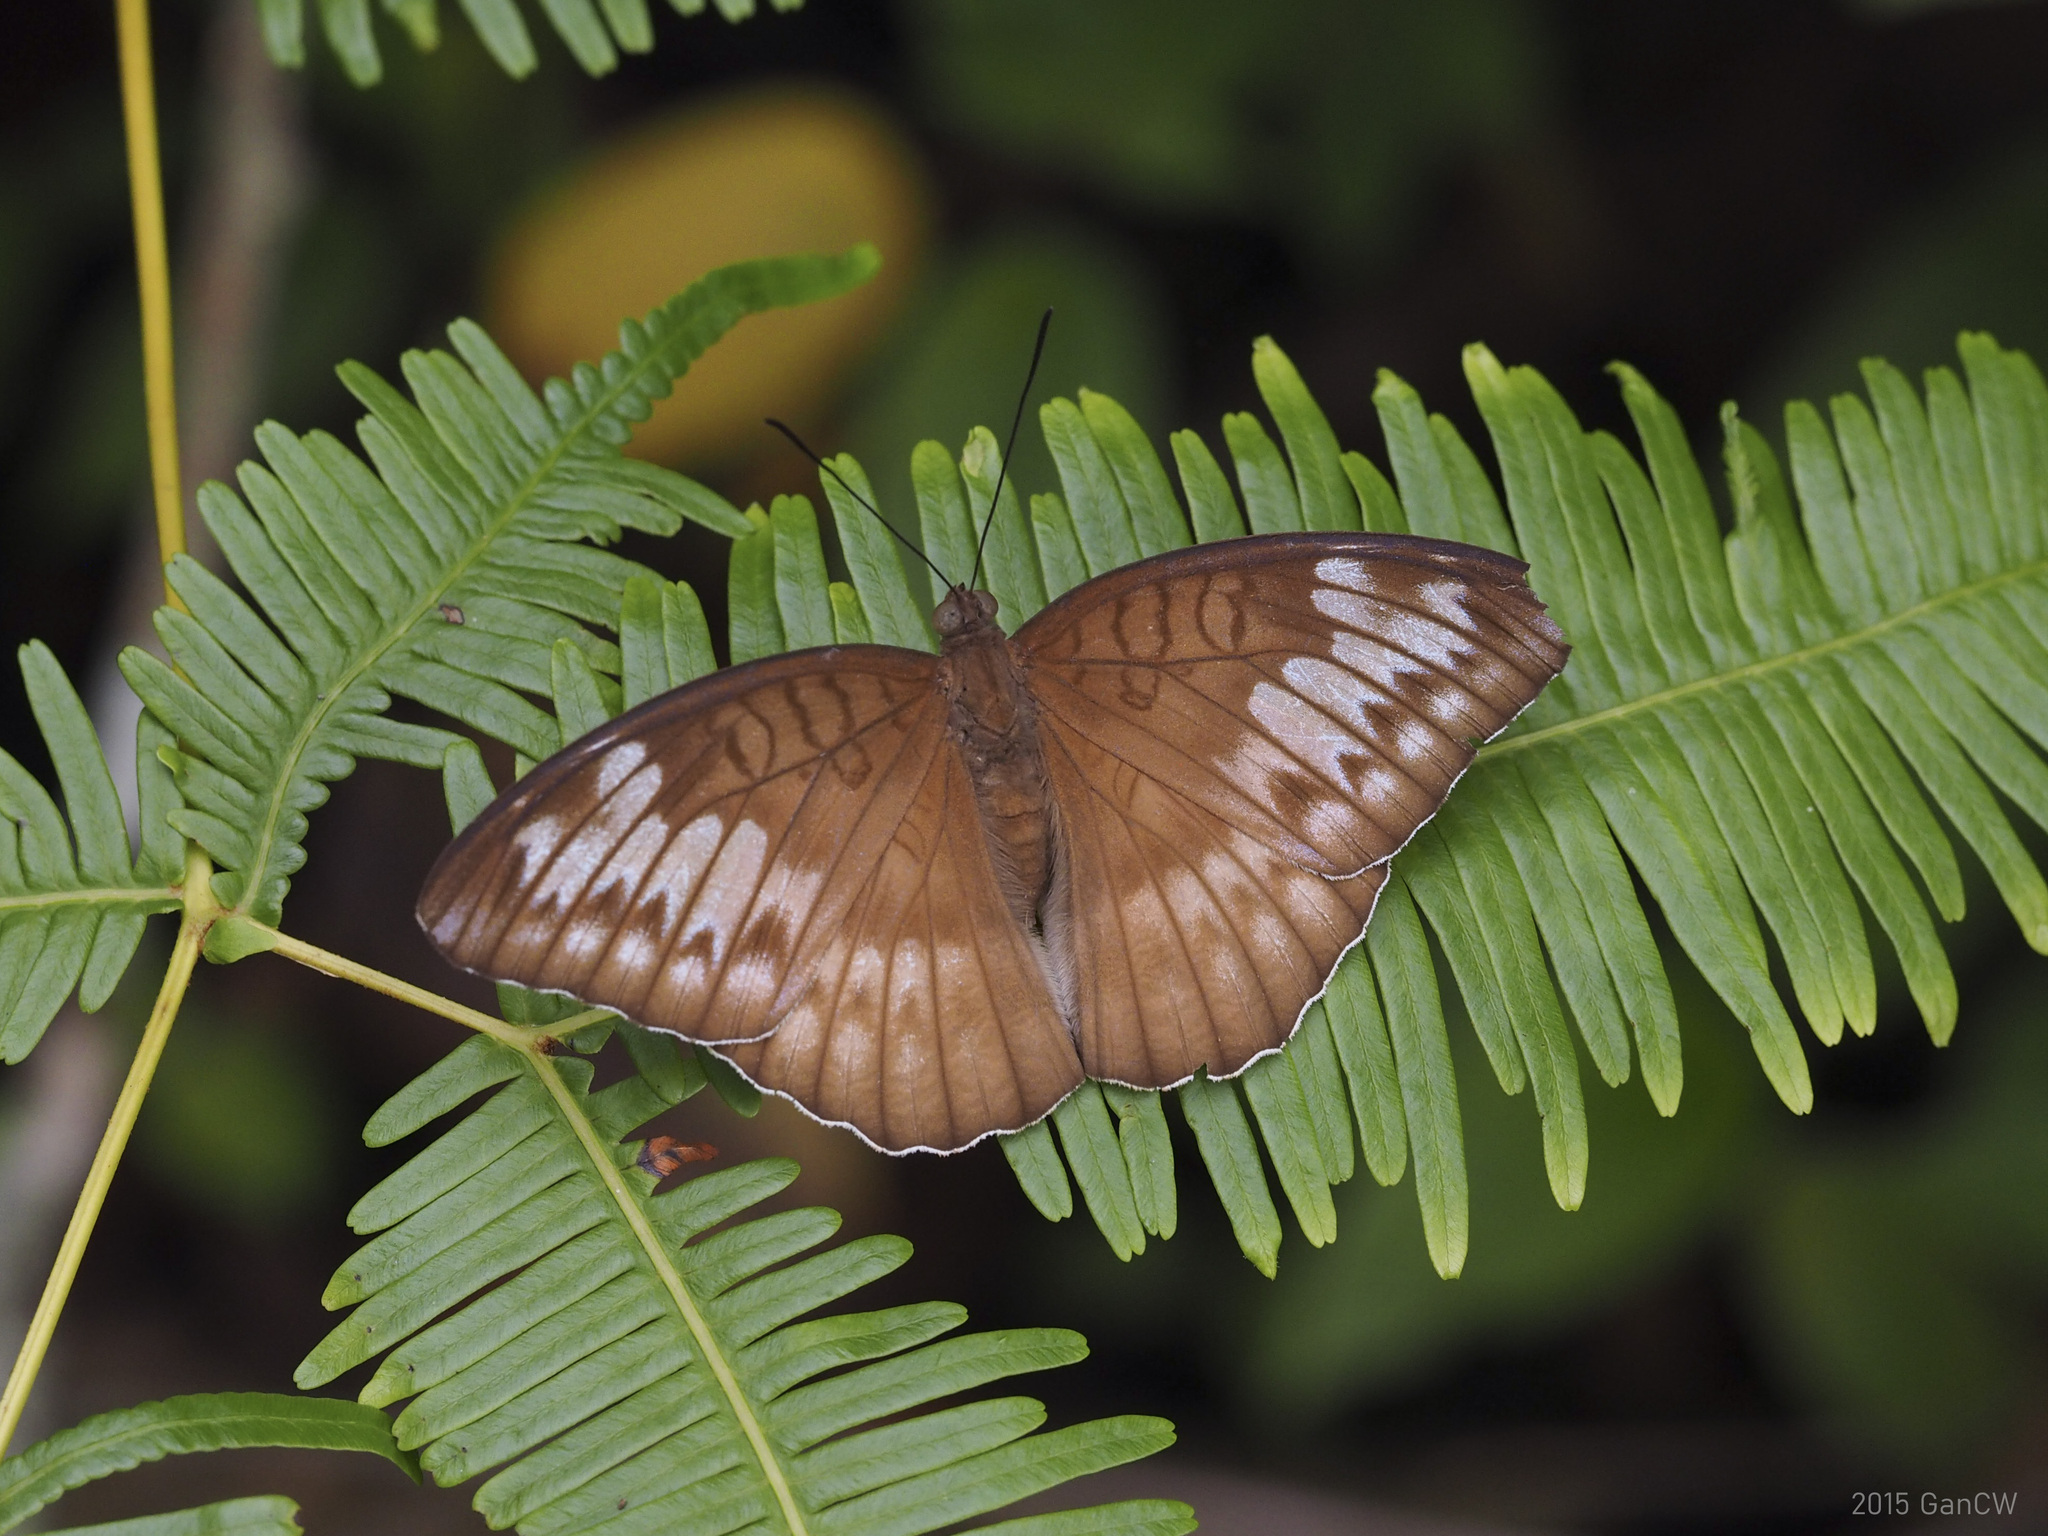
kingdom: Animalia
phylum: Arthropoda
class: Insecta
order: Lepidoptera
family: Nymphalidae
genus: Tanaecia
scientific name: Tanaecia iapis
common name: Horsfield's baron
